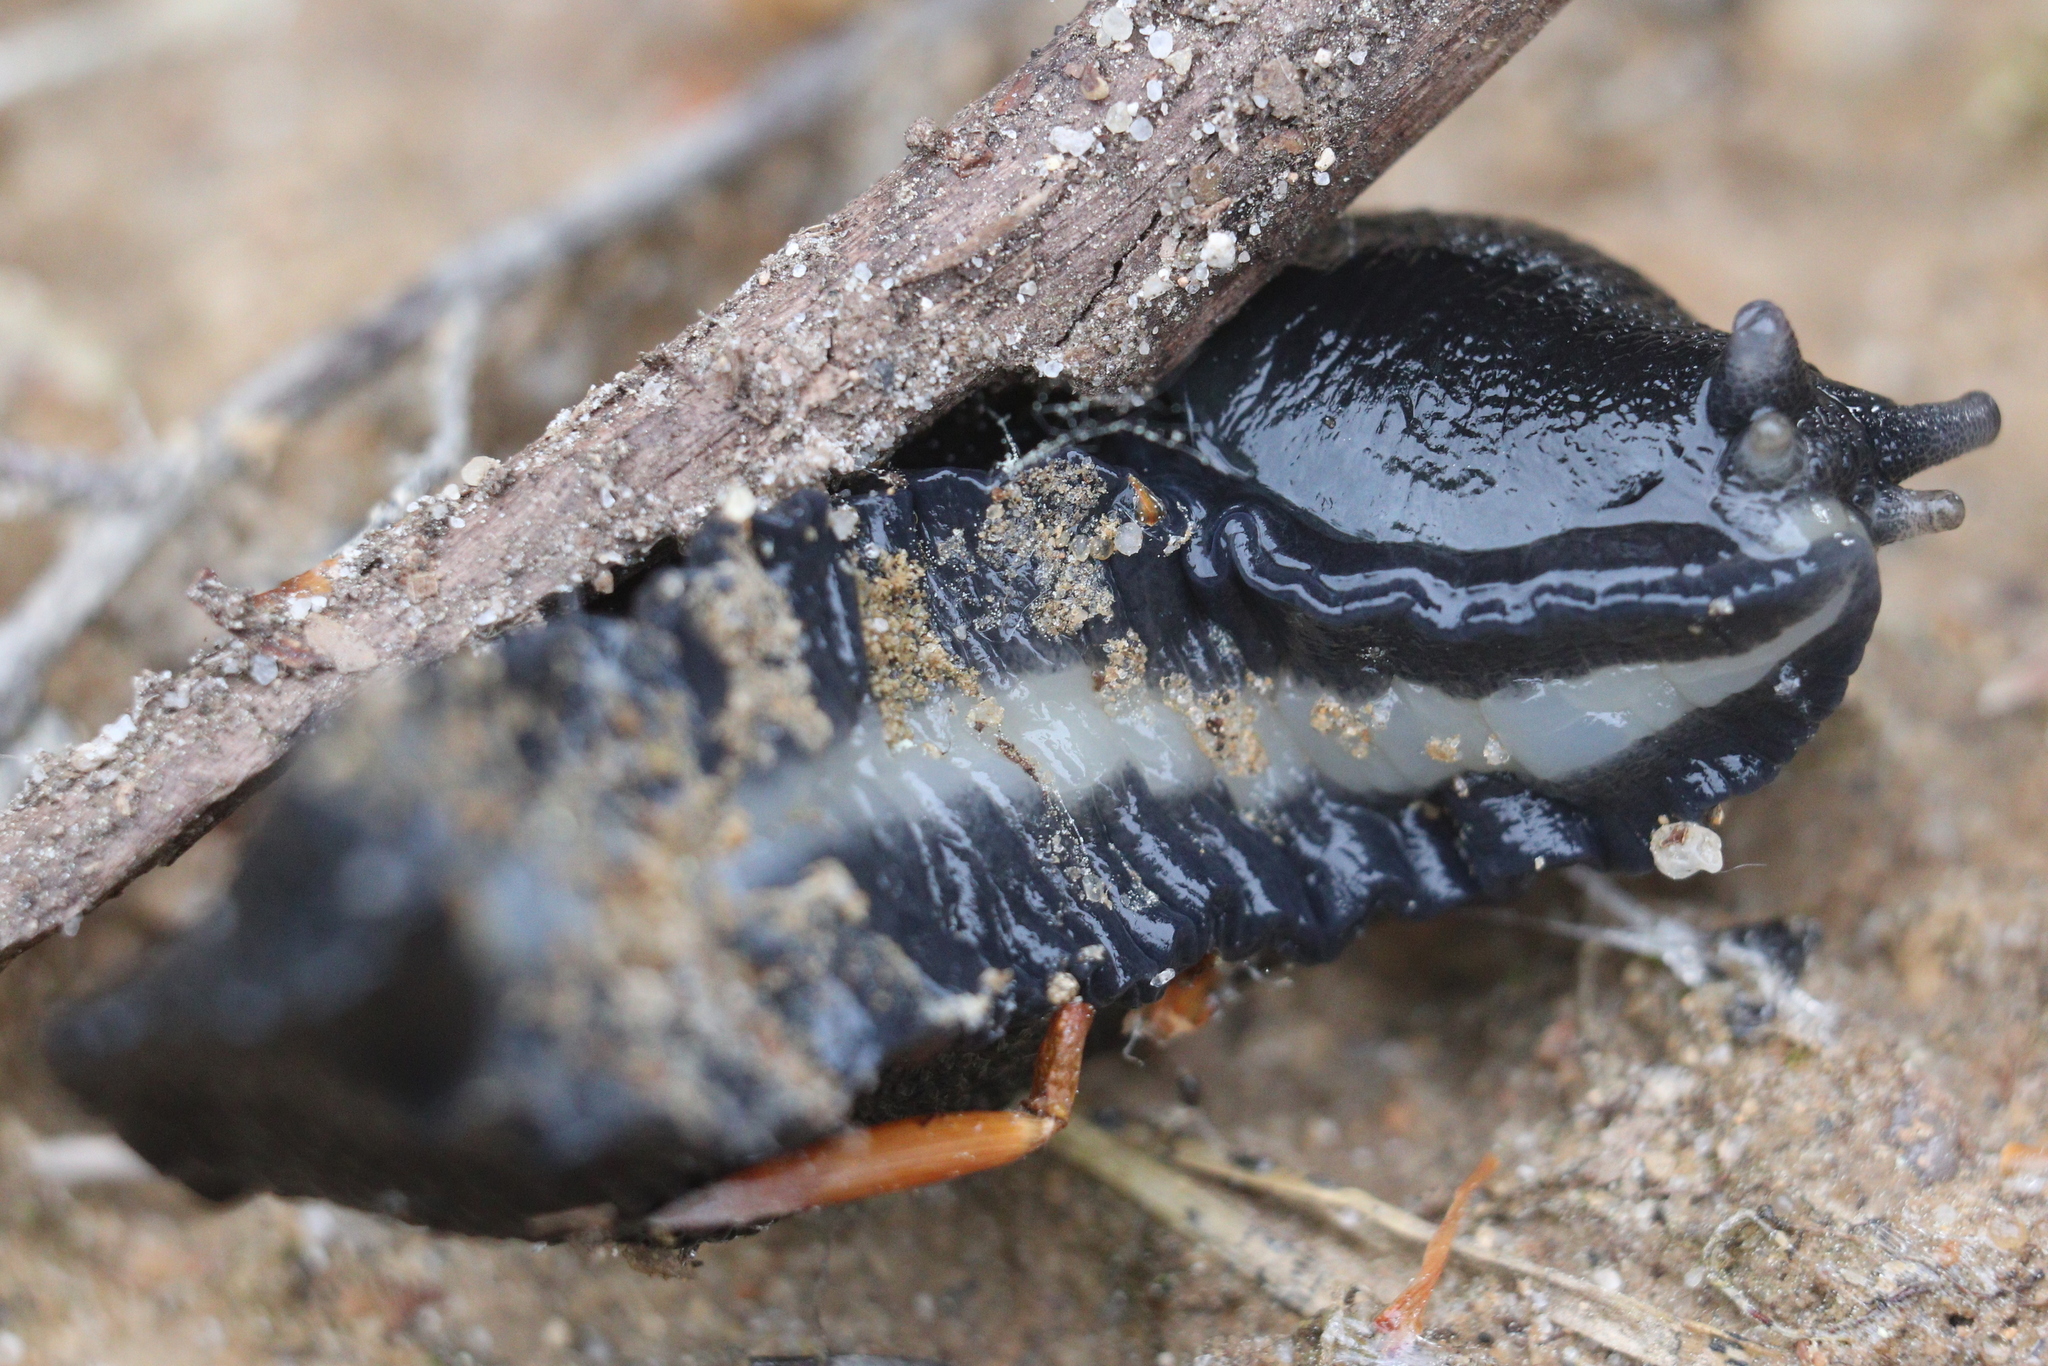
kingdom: Animalia
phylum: Mollusca
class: Gastropoda
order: Stylommatophora
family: Limacidae
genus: Limax
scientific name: Limax cinereoniger
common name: Ash-black slug
